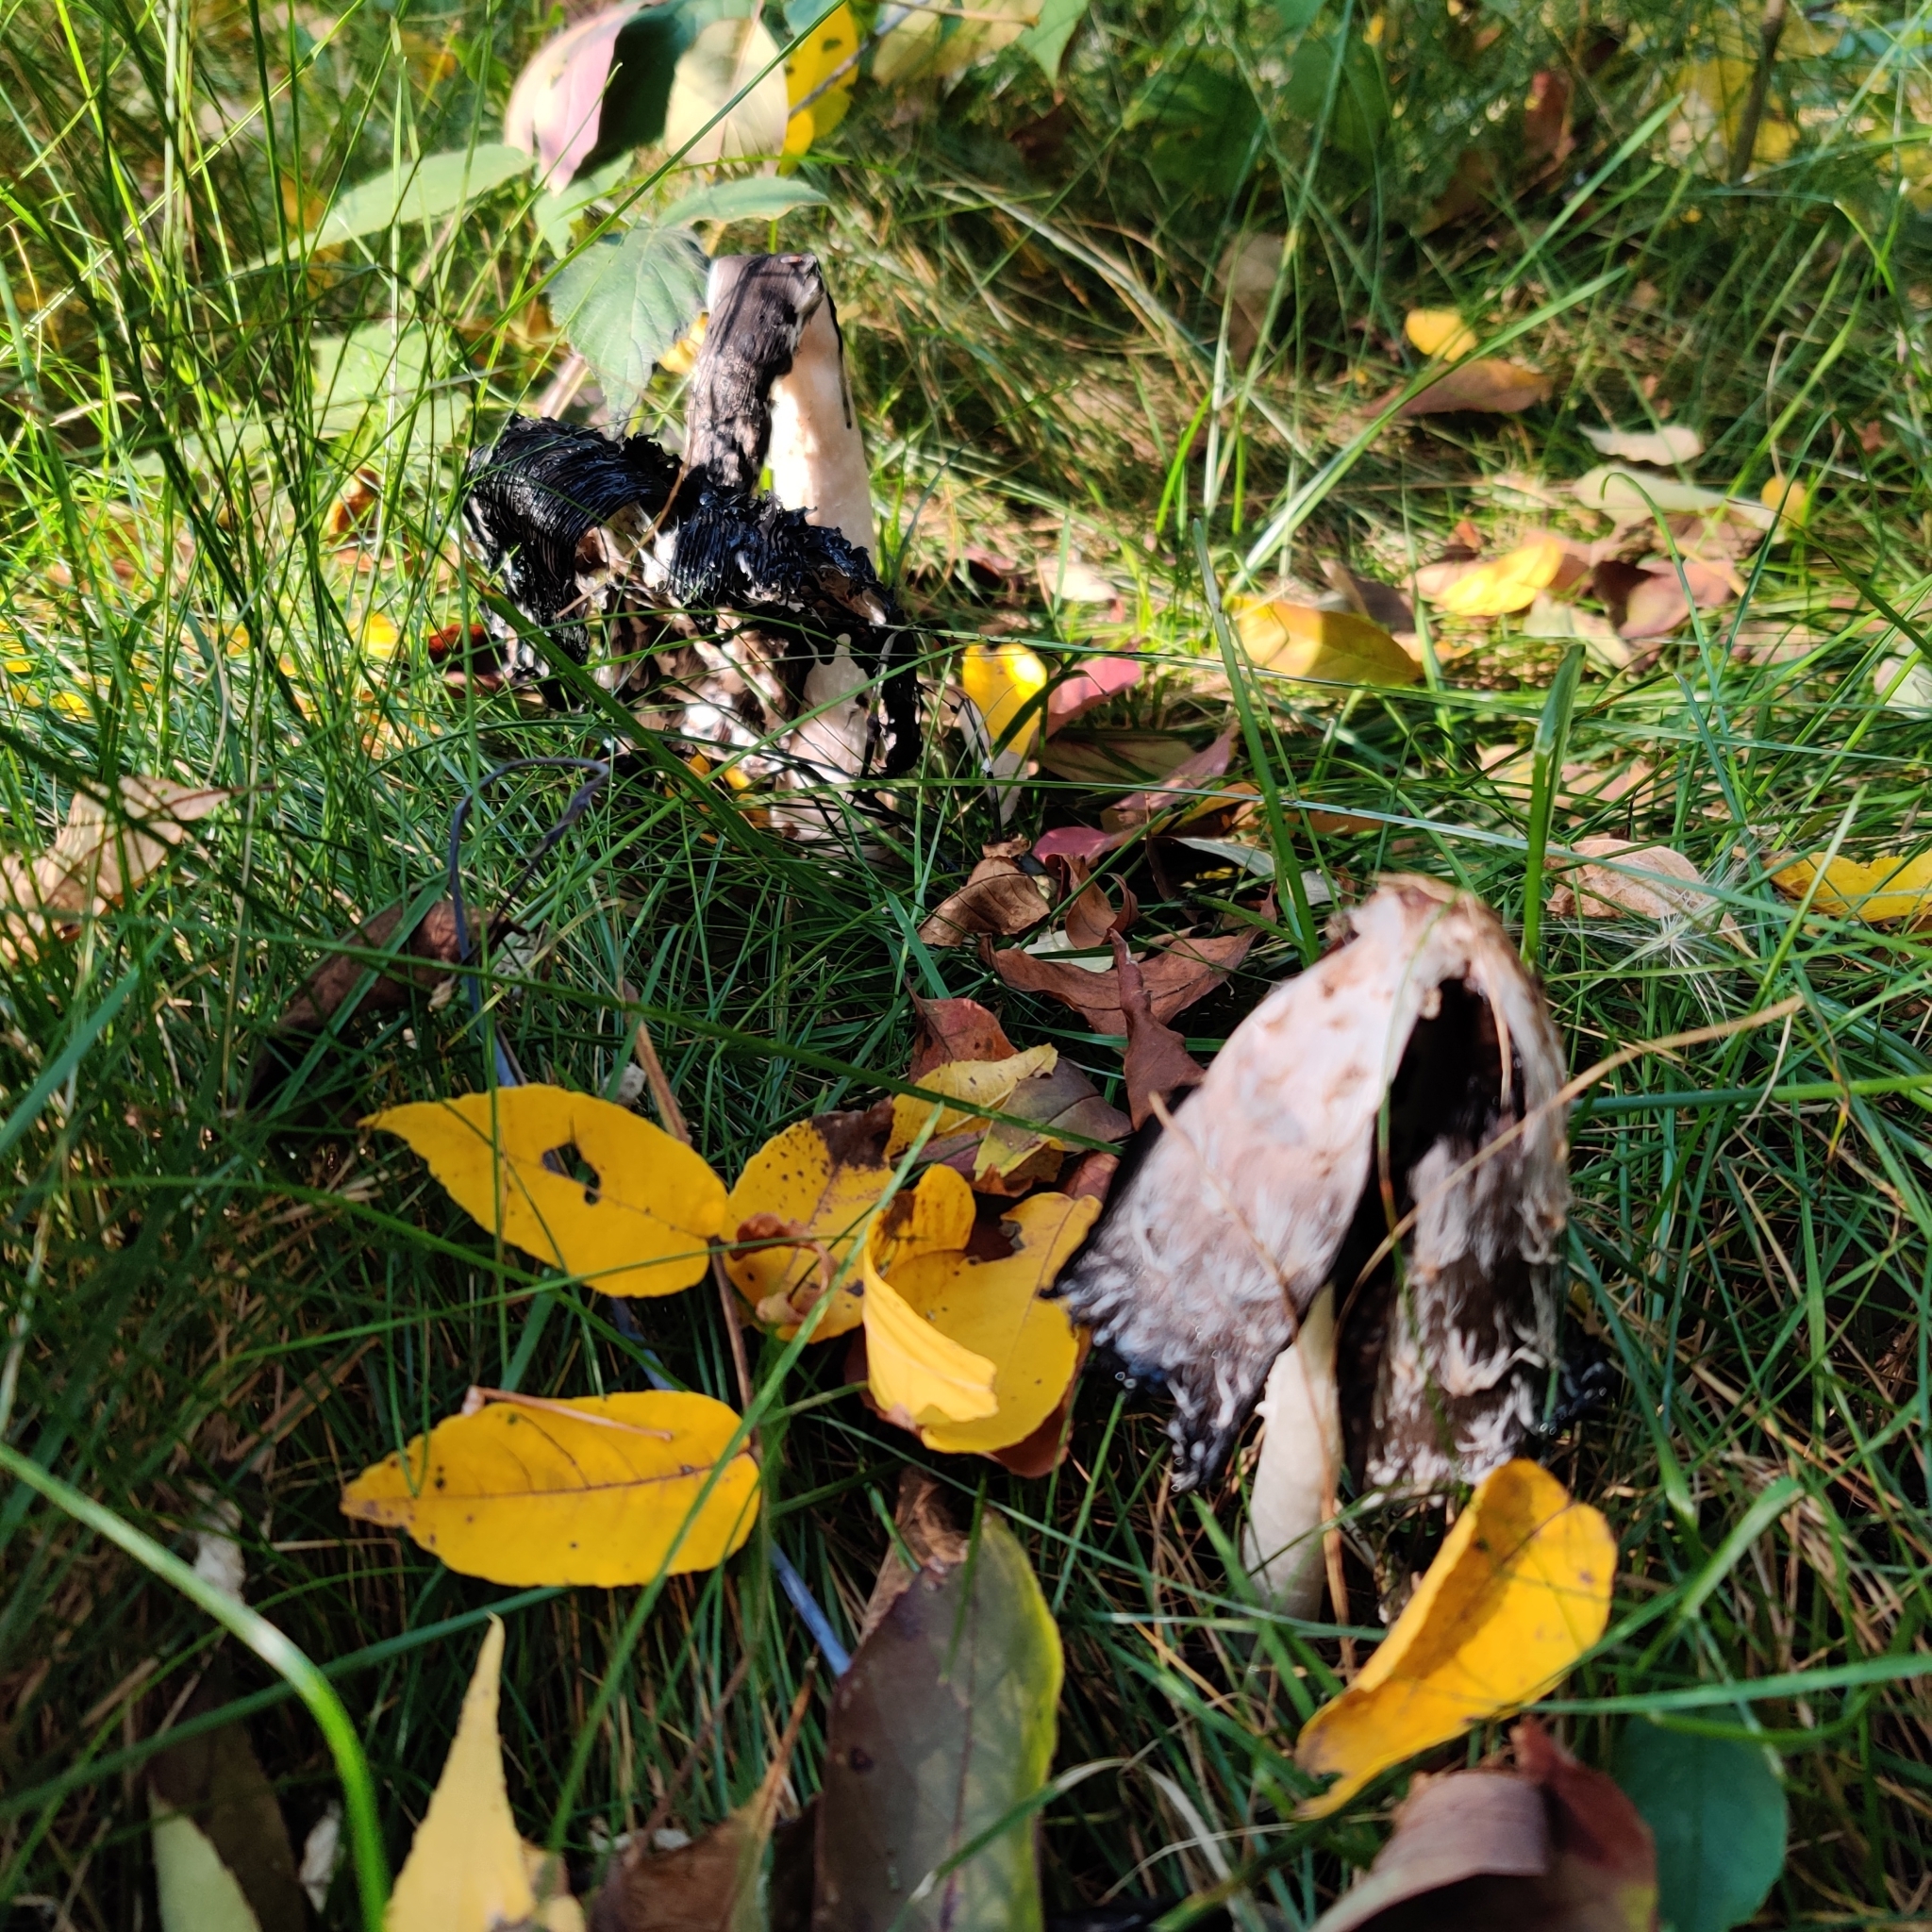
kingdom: Fungi
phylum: Basidiomycota
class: Agaricomycetes
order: Agaricales
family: Agaricaceae
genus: Coprinus
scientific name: Coprinus comatus
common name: Lawyer's wig
